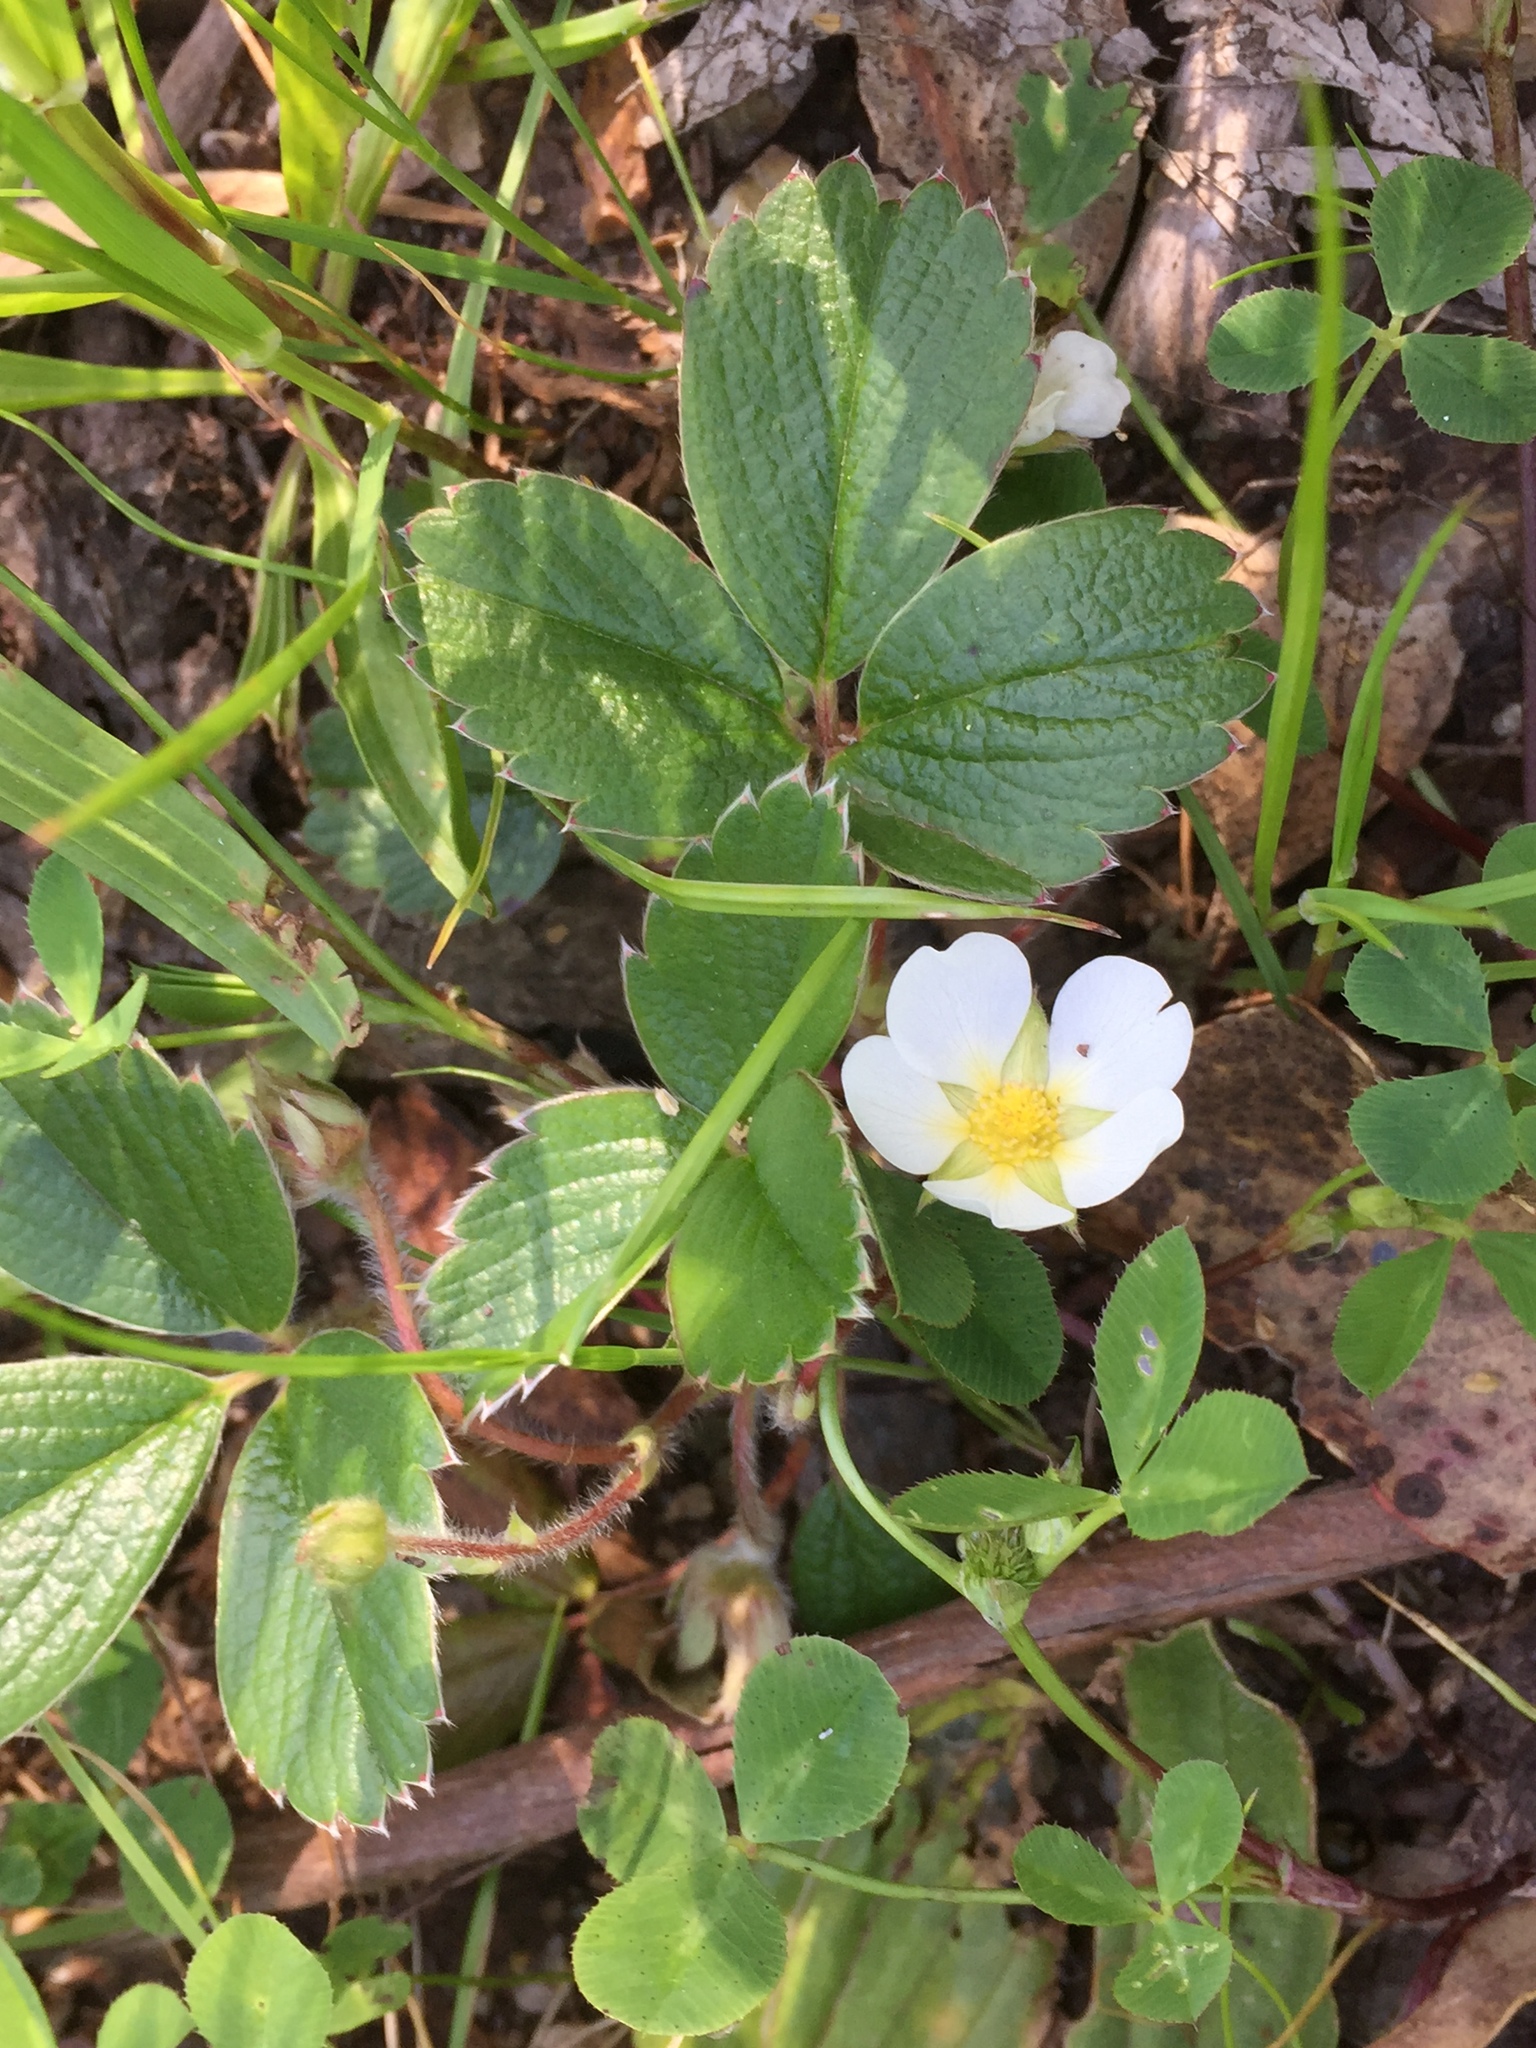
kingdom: Plantae
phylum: Tracheophyta
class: Magnoliopsida
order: Rosales
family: Rosaceae
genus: Fragaria
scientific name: Fragaria chiloensis
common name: Beach strawberry
